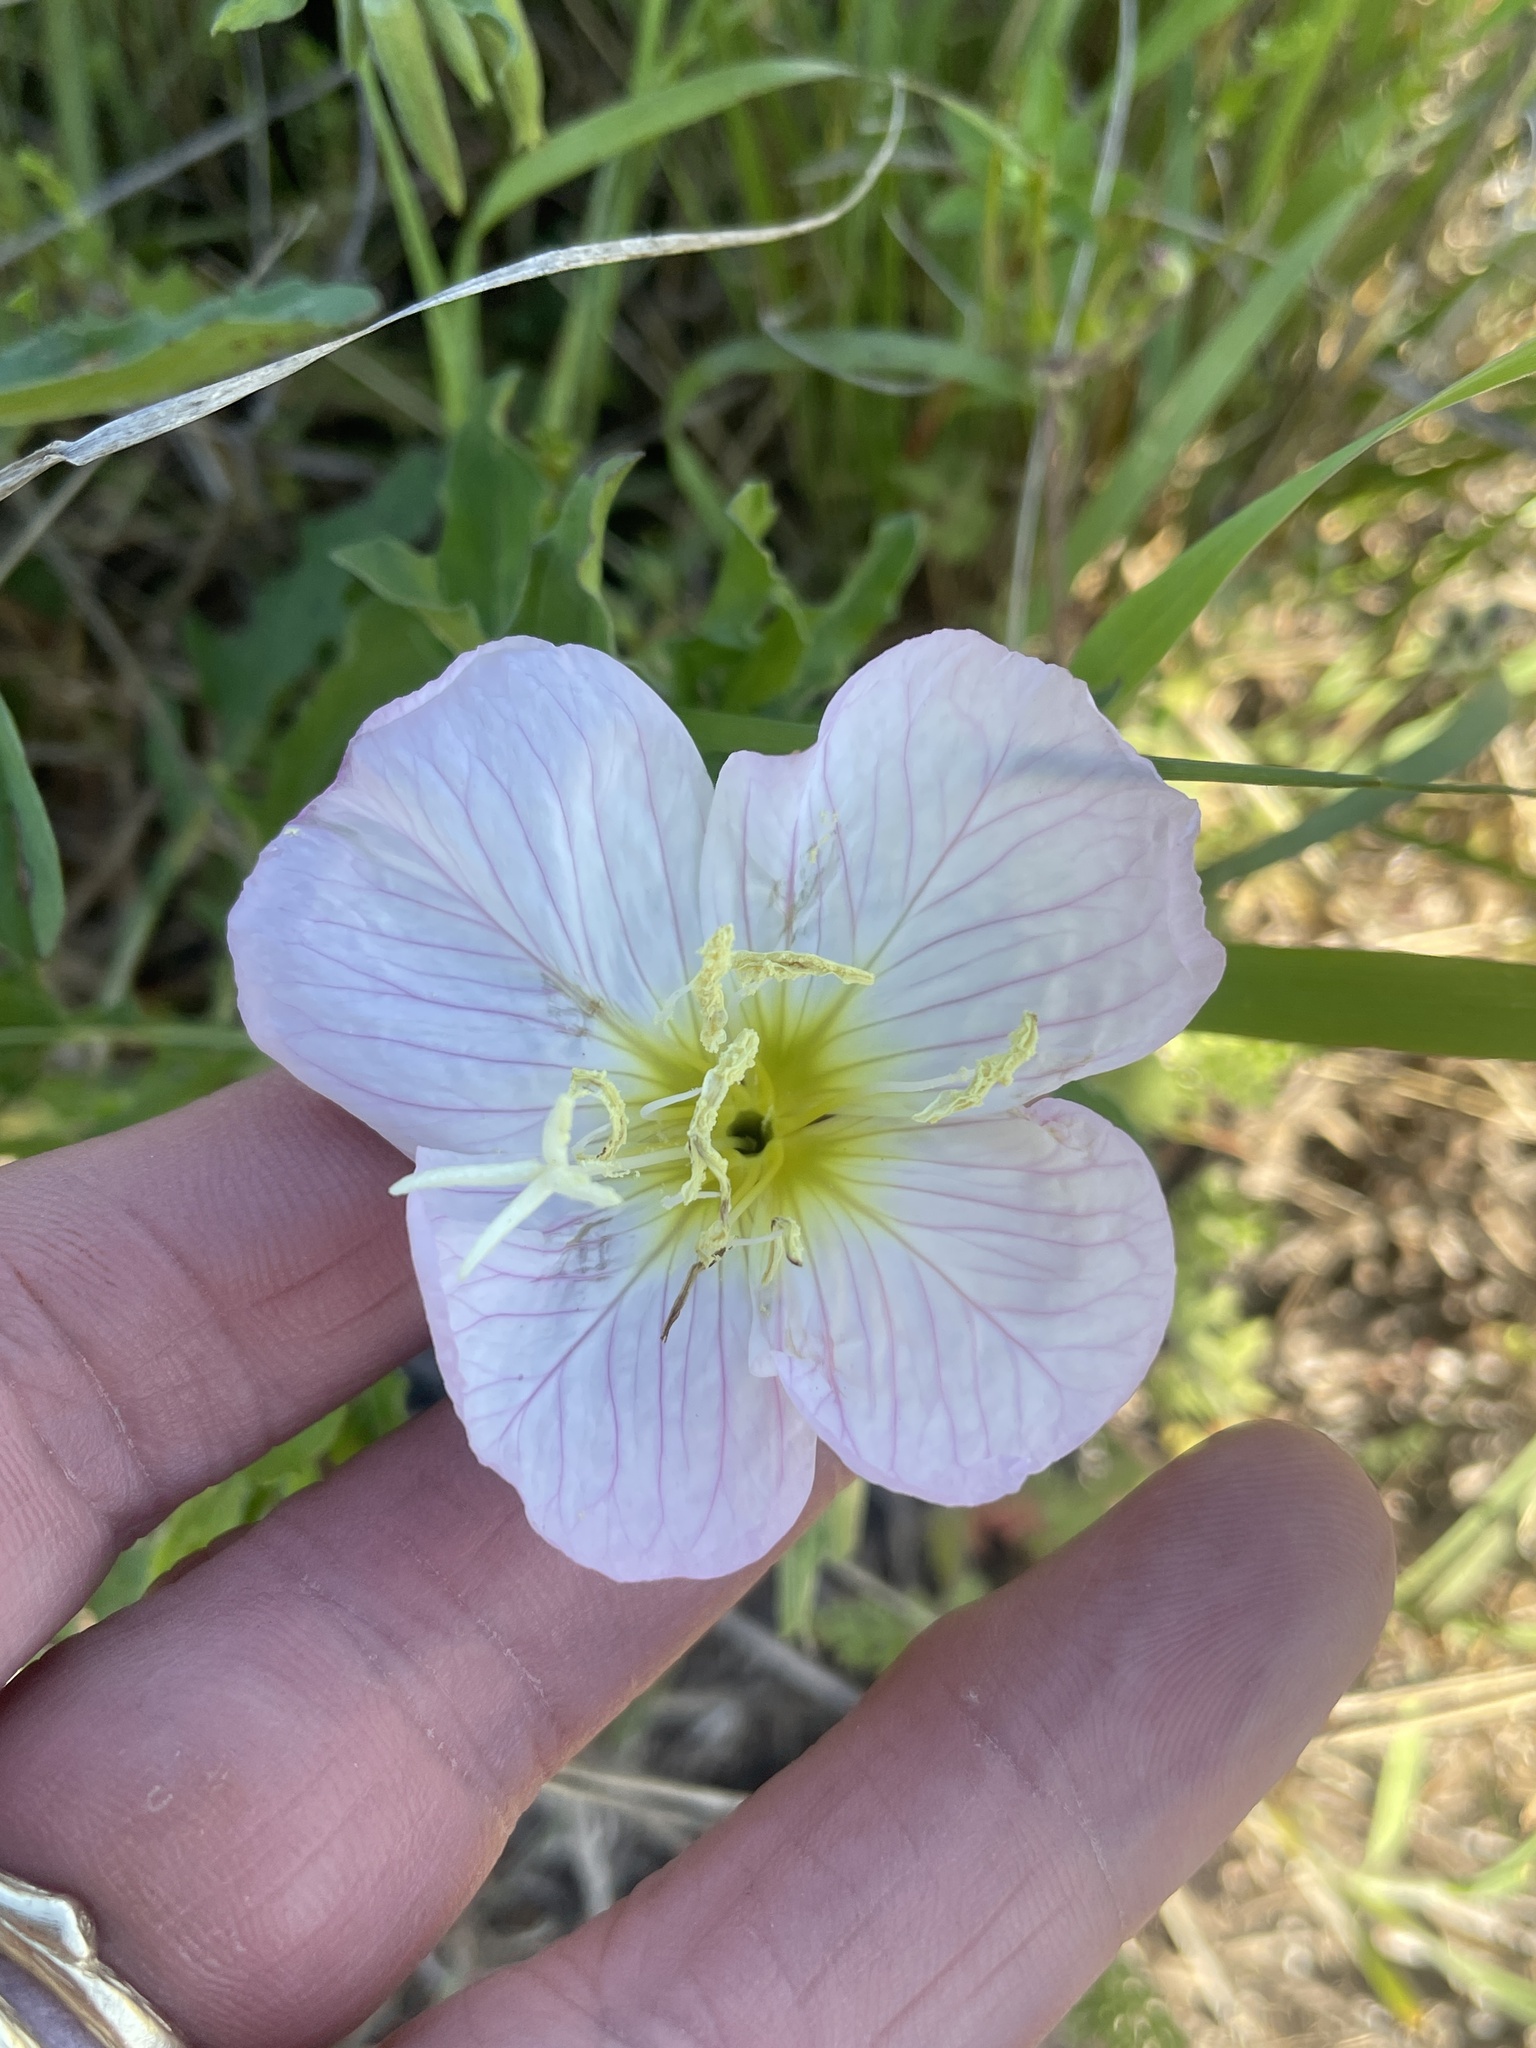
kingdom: Plantae
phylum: Tracheophyta
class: Magnoliopsida
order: Myrtales
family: Onagraceae
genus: Oenothera
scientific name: Oenothera speciosa
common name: White evening-primrose
